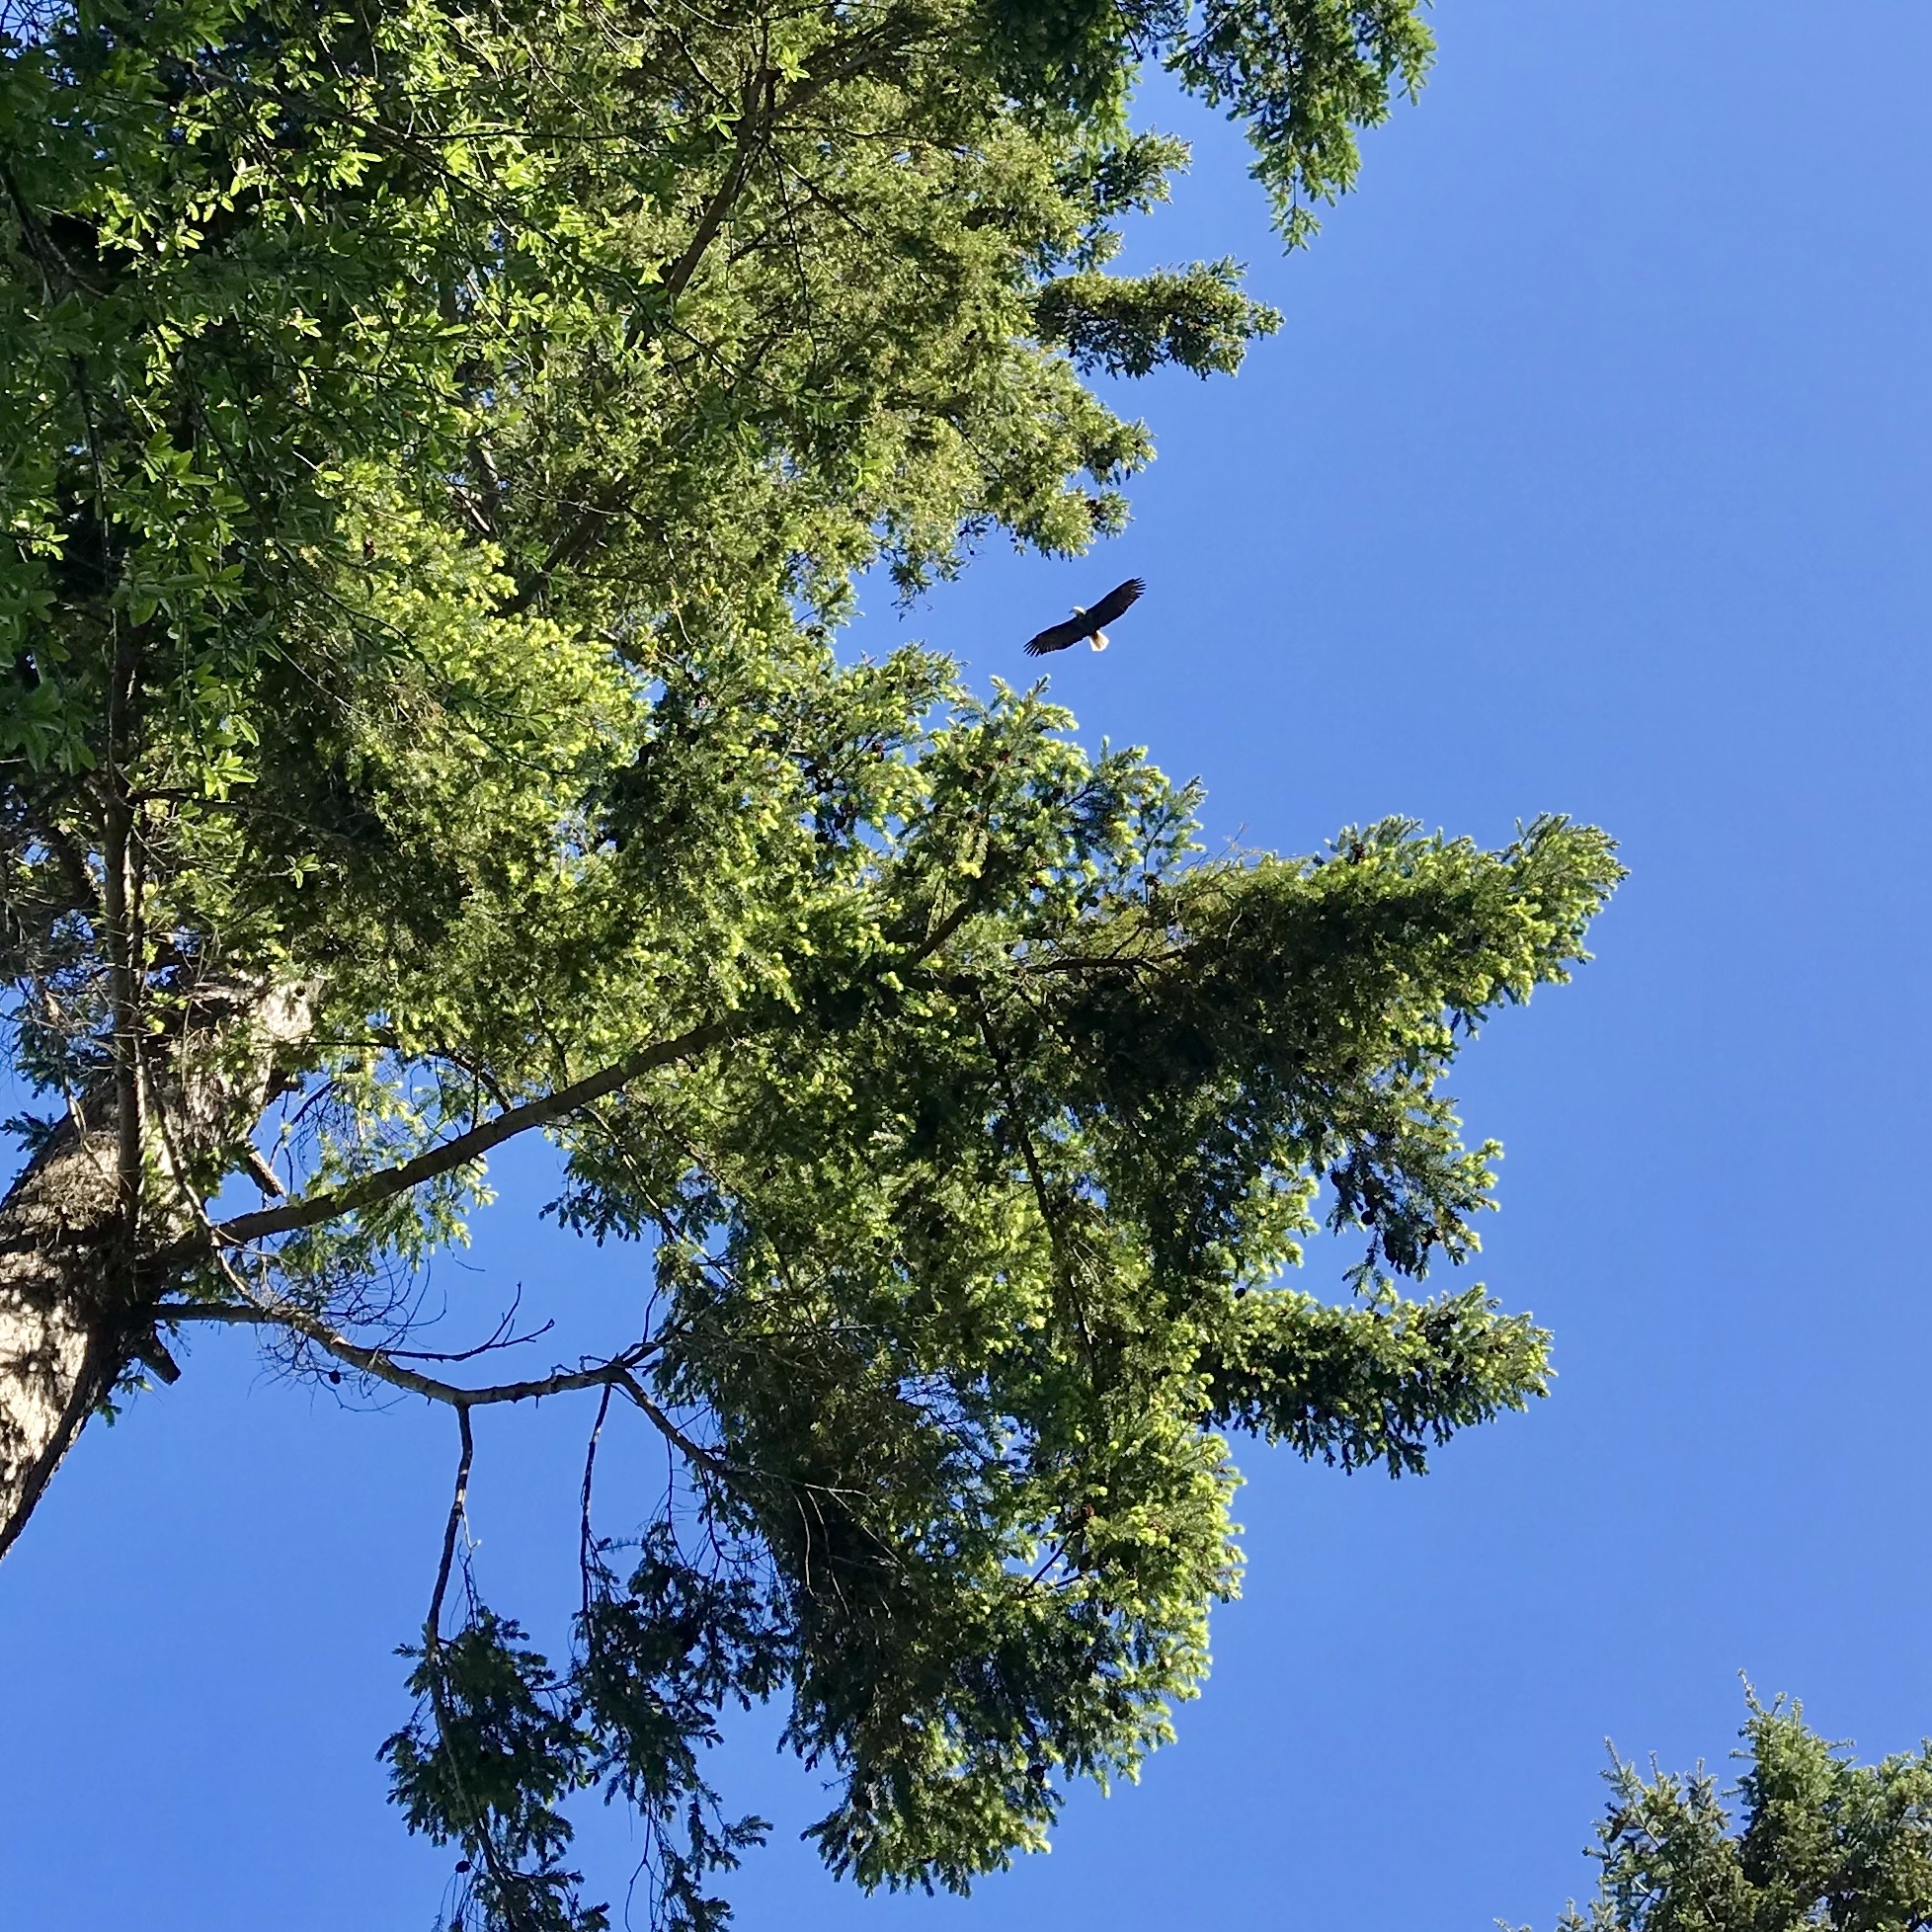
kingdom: Animalia
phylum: Chordata
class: Aves
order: Accipitriformes
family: Accipitridae
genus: Haliaeetus
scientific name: Haliaeetus leucocephalus
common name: Bald eagle
